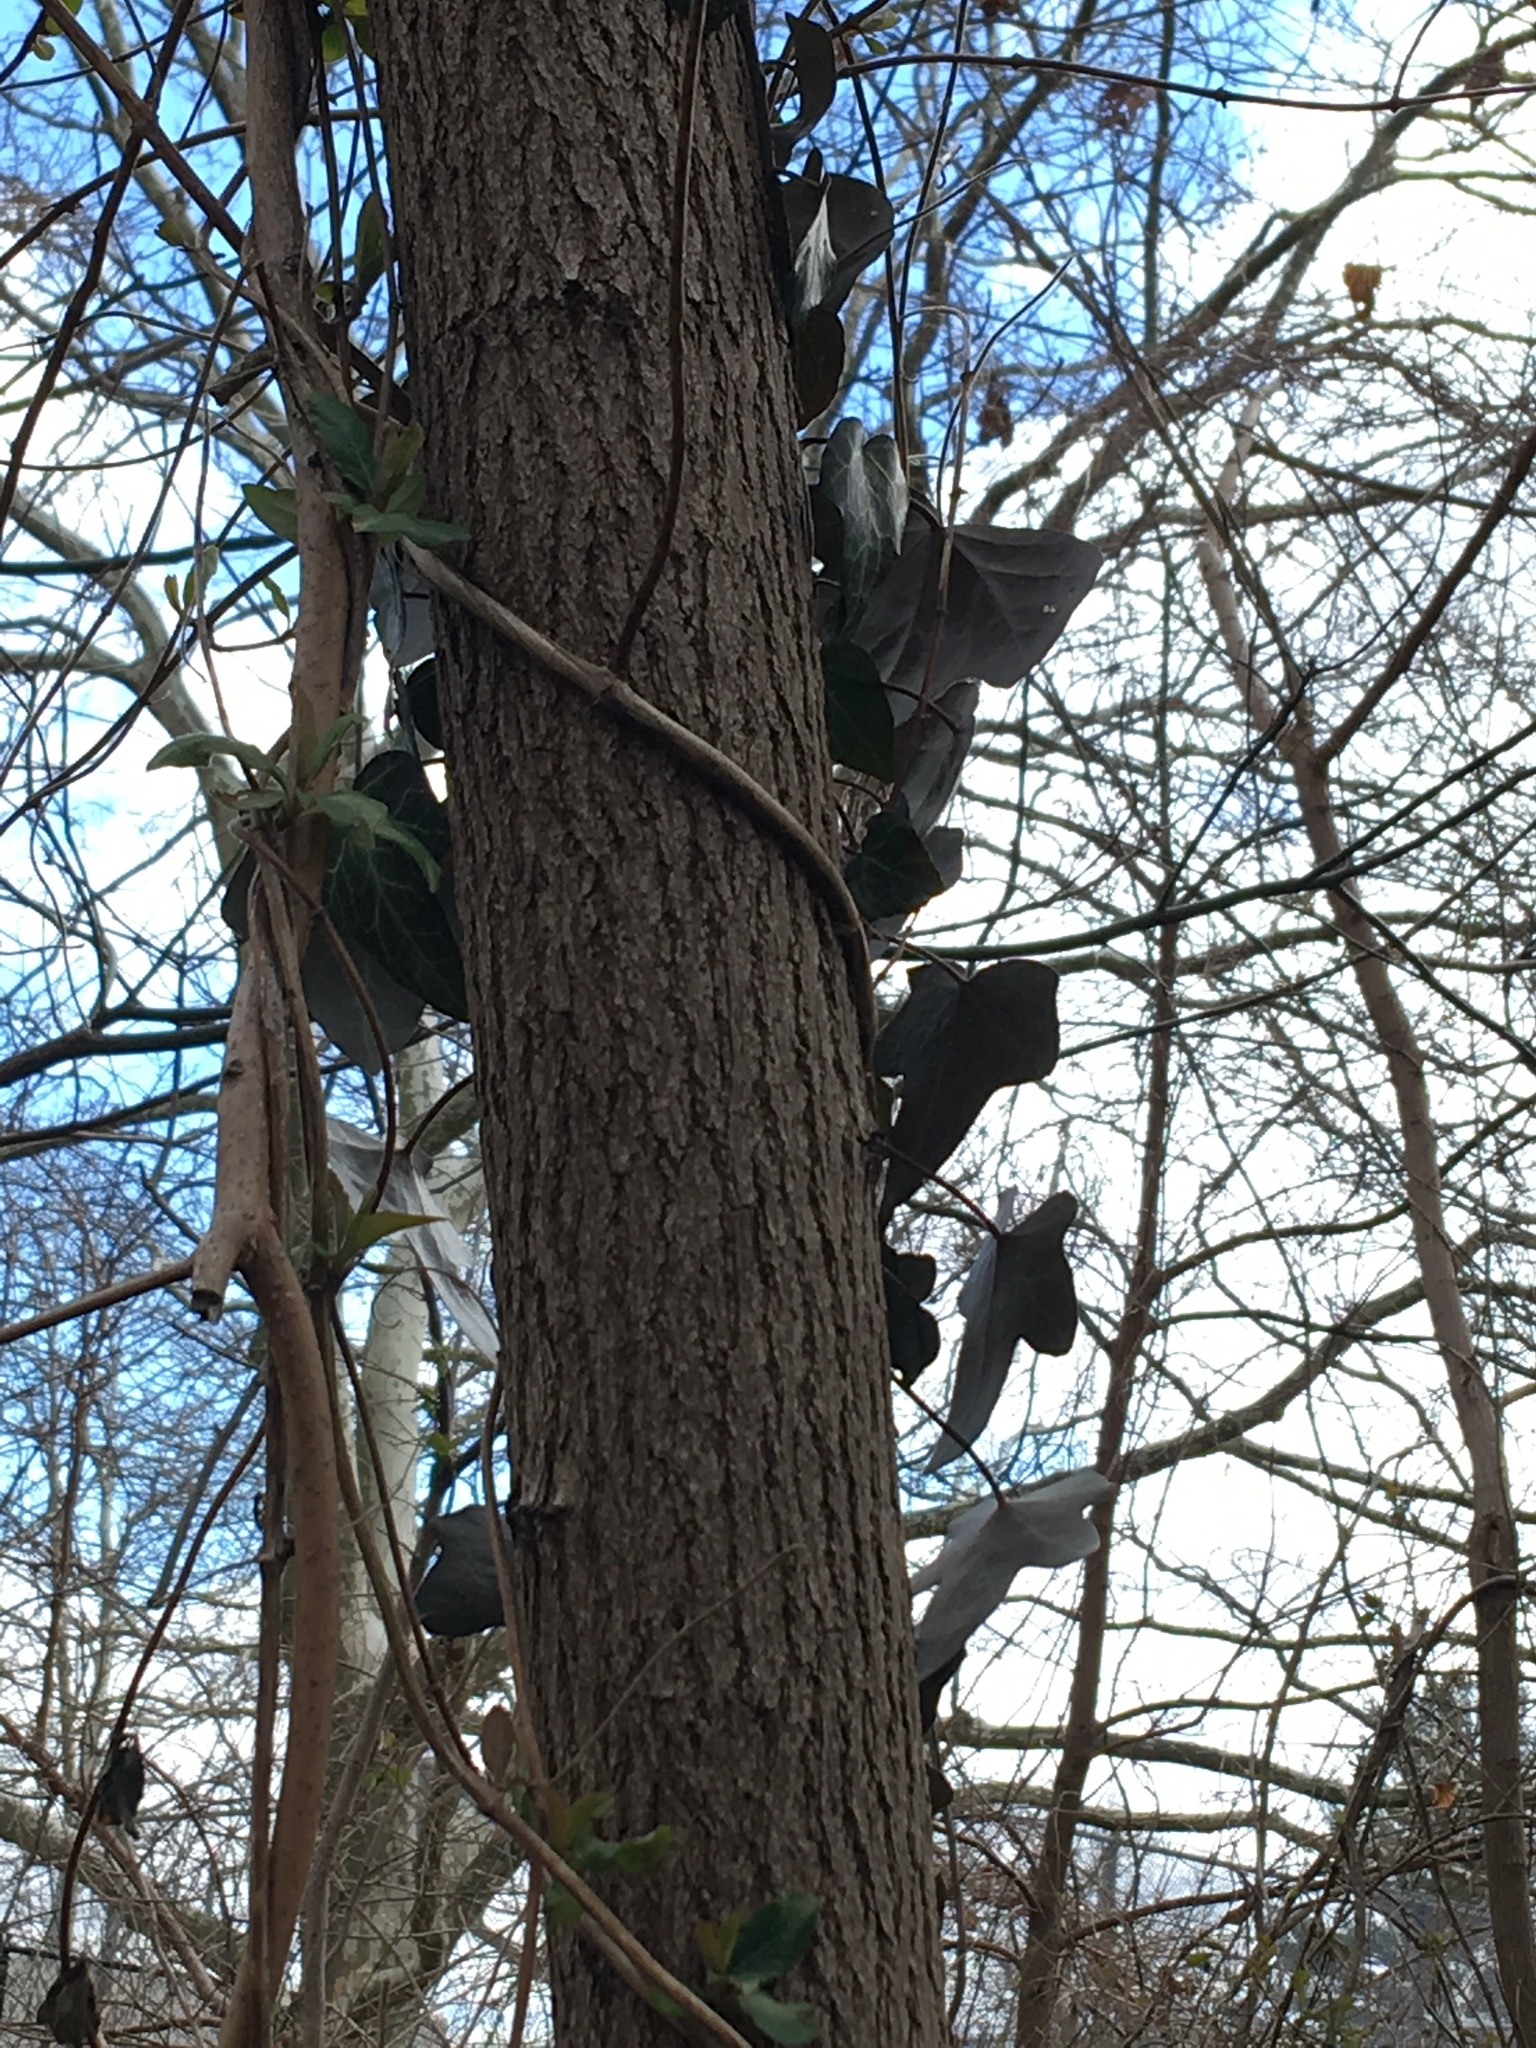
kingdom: Plantae
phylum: Tracheophyta
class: Magnoliopsida
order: Apiales
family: Araliaceae
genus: Hedera
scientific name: Hedera helix
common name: Ivy
